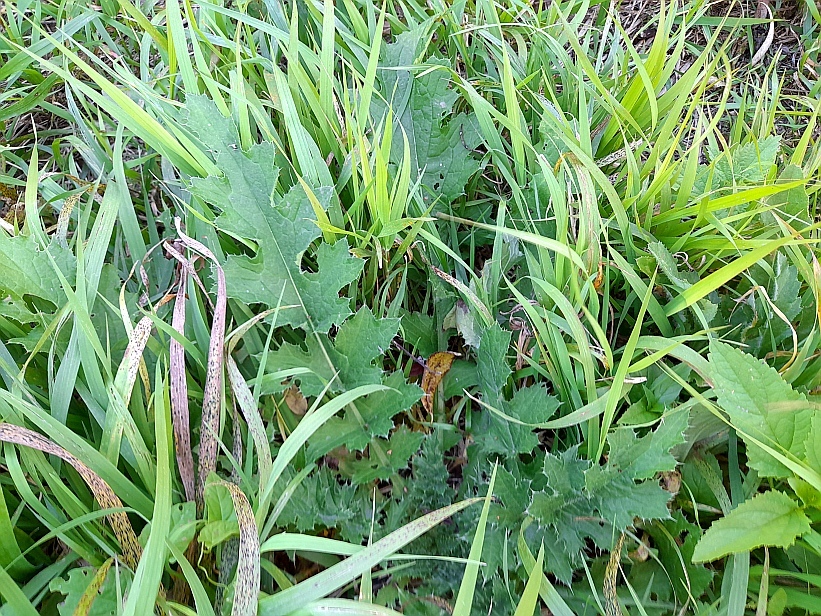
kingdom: Plantae
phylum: Tracheophyta
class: Magnoliopsida
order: Asterales
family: Asteraceae
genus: Carduus
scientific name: Carduus crispus
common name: Welted thistle
